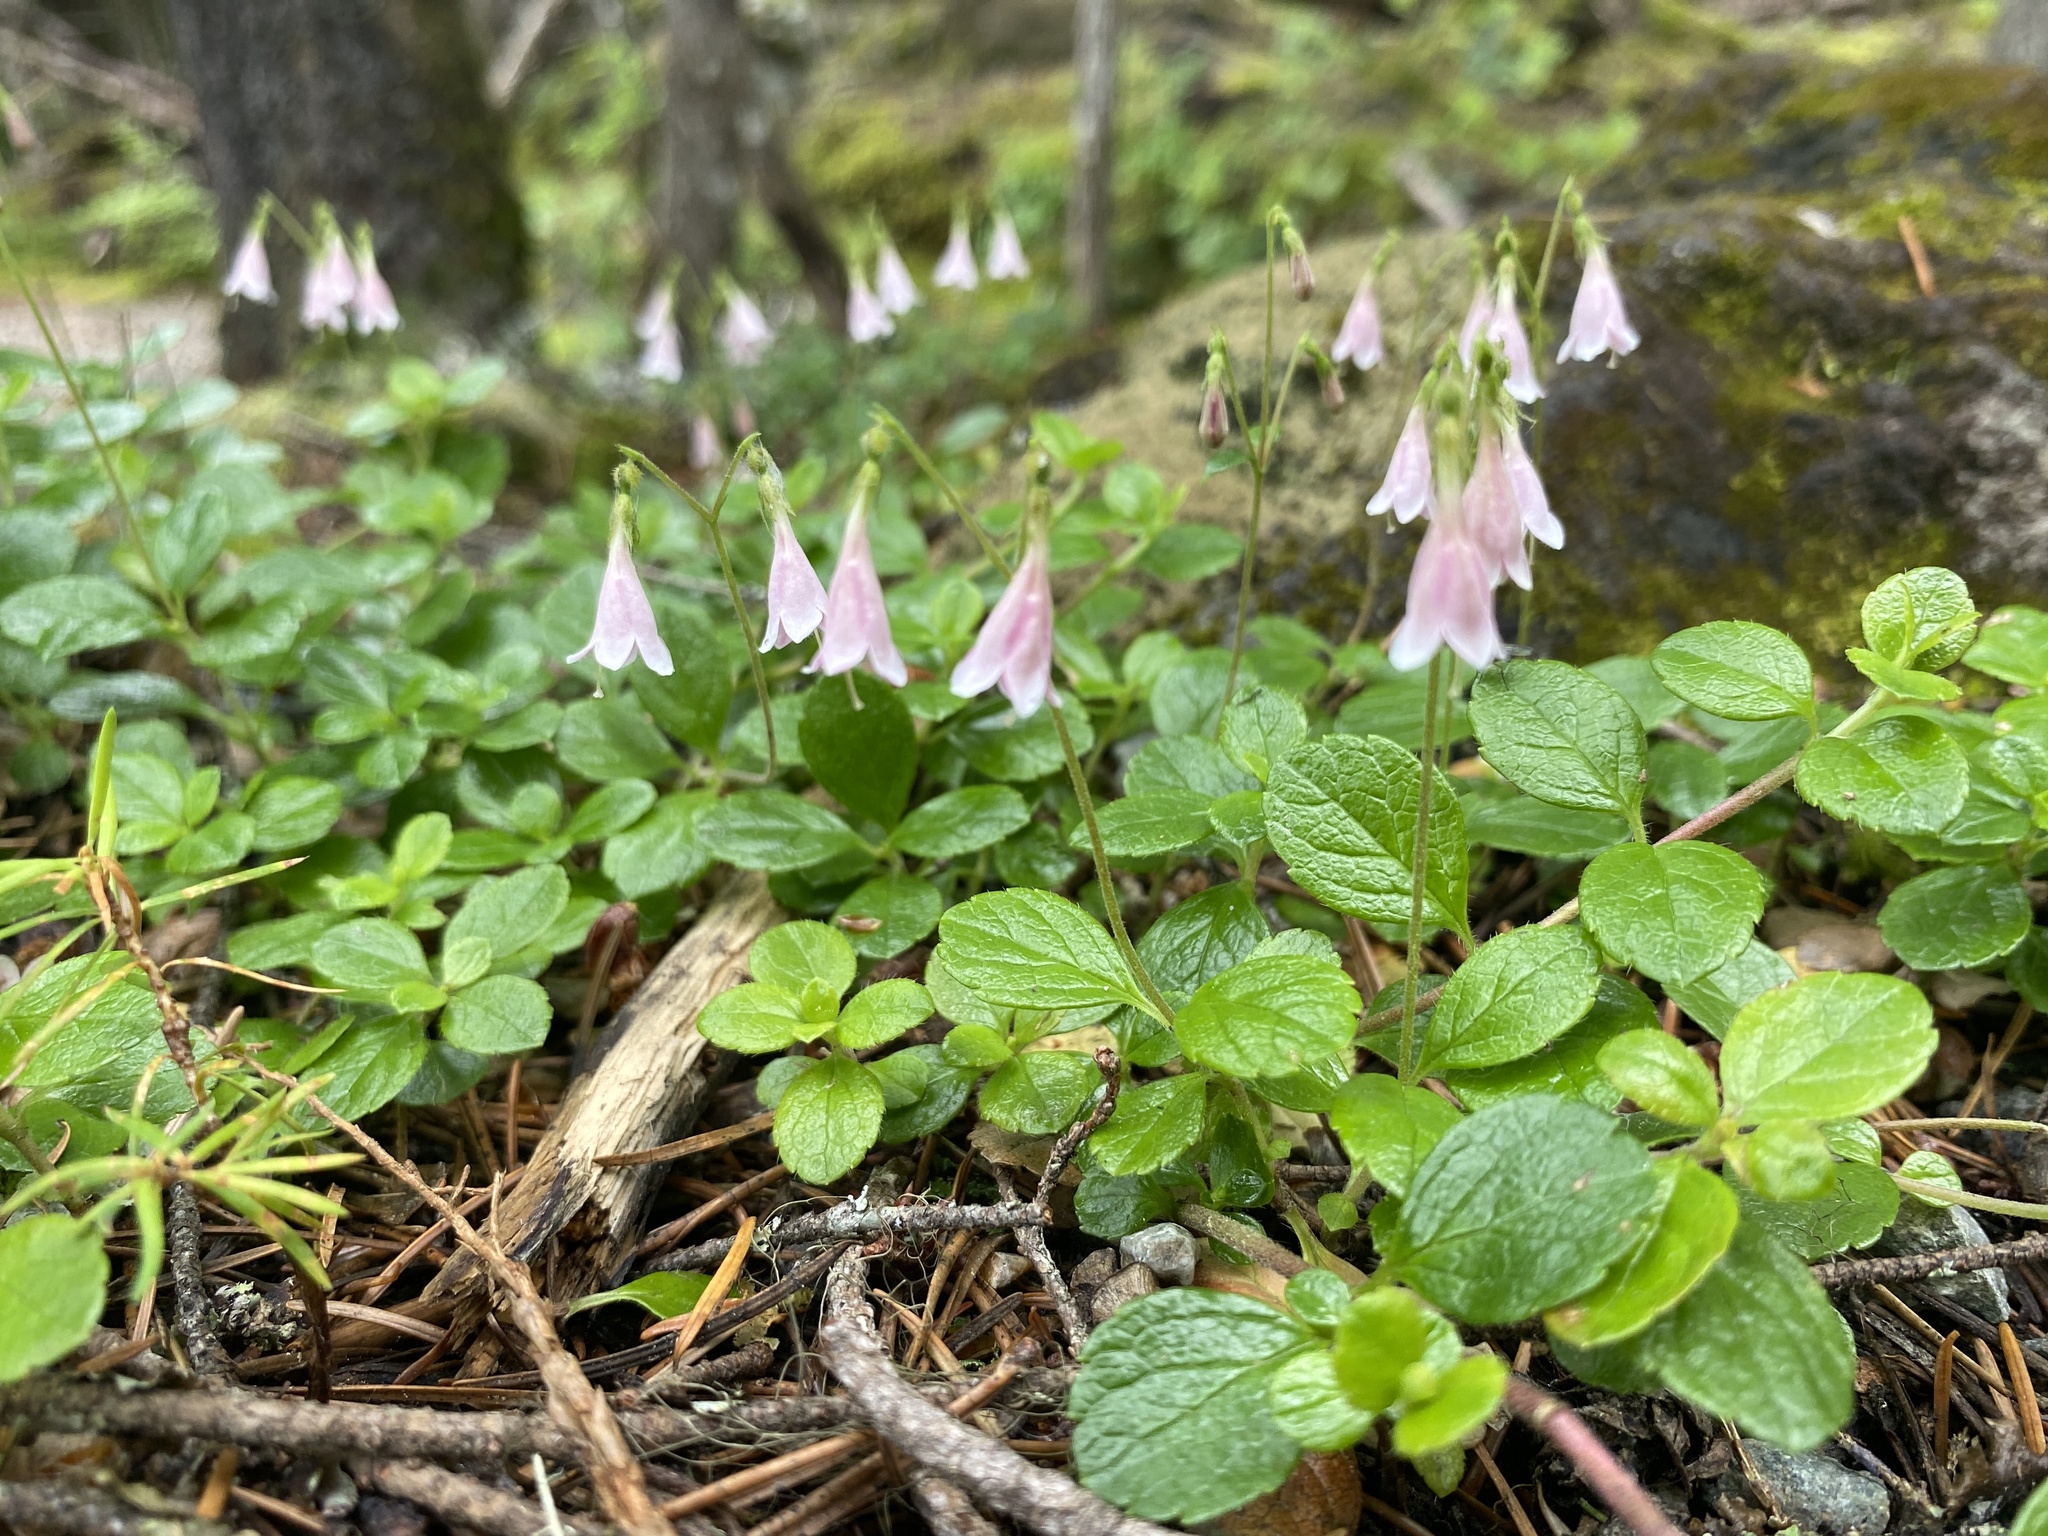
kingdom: Plantae
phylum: Tracheophyta
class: Magnoliopsida
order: Dipsacales
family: Caprifoliaceae
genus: Linnaea
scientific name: Linnaea borealis
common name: Twinflower
